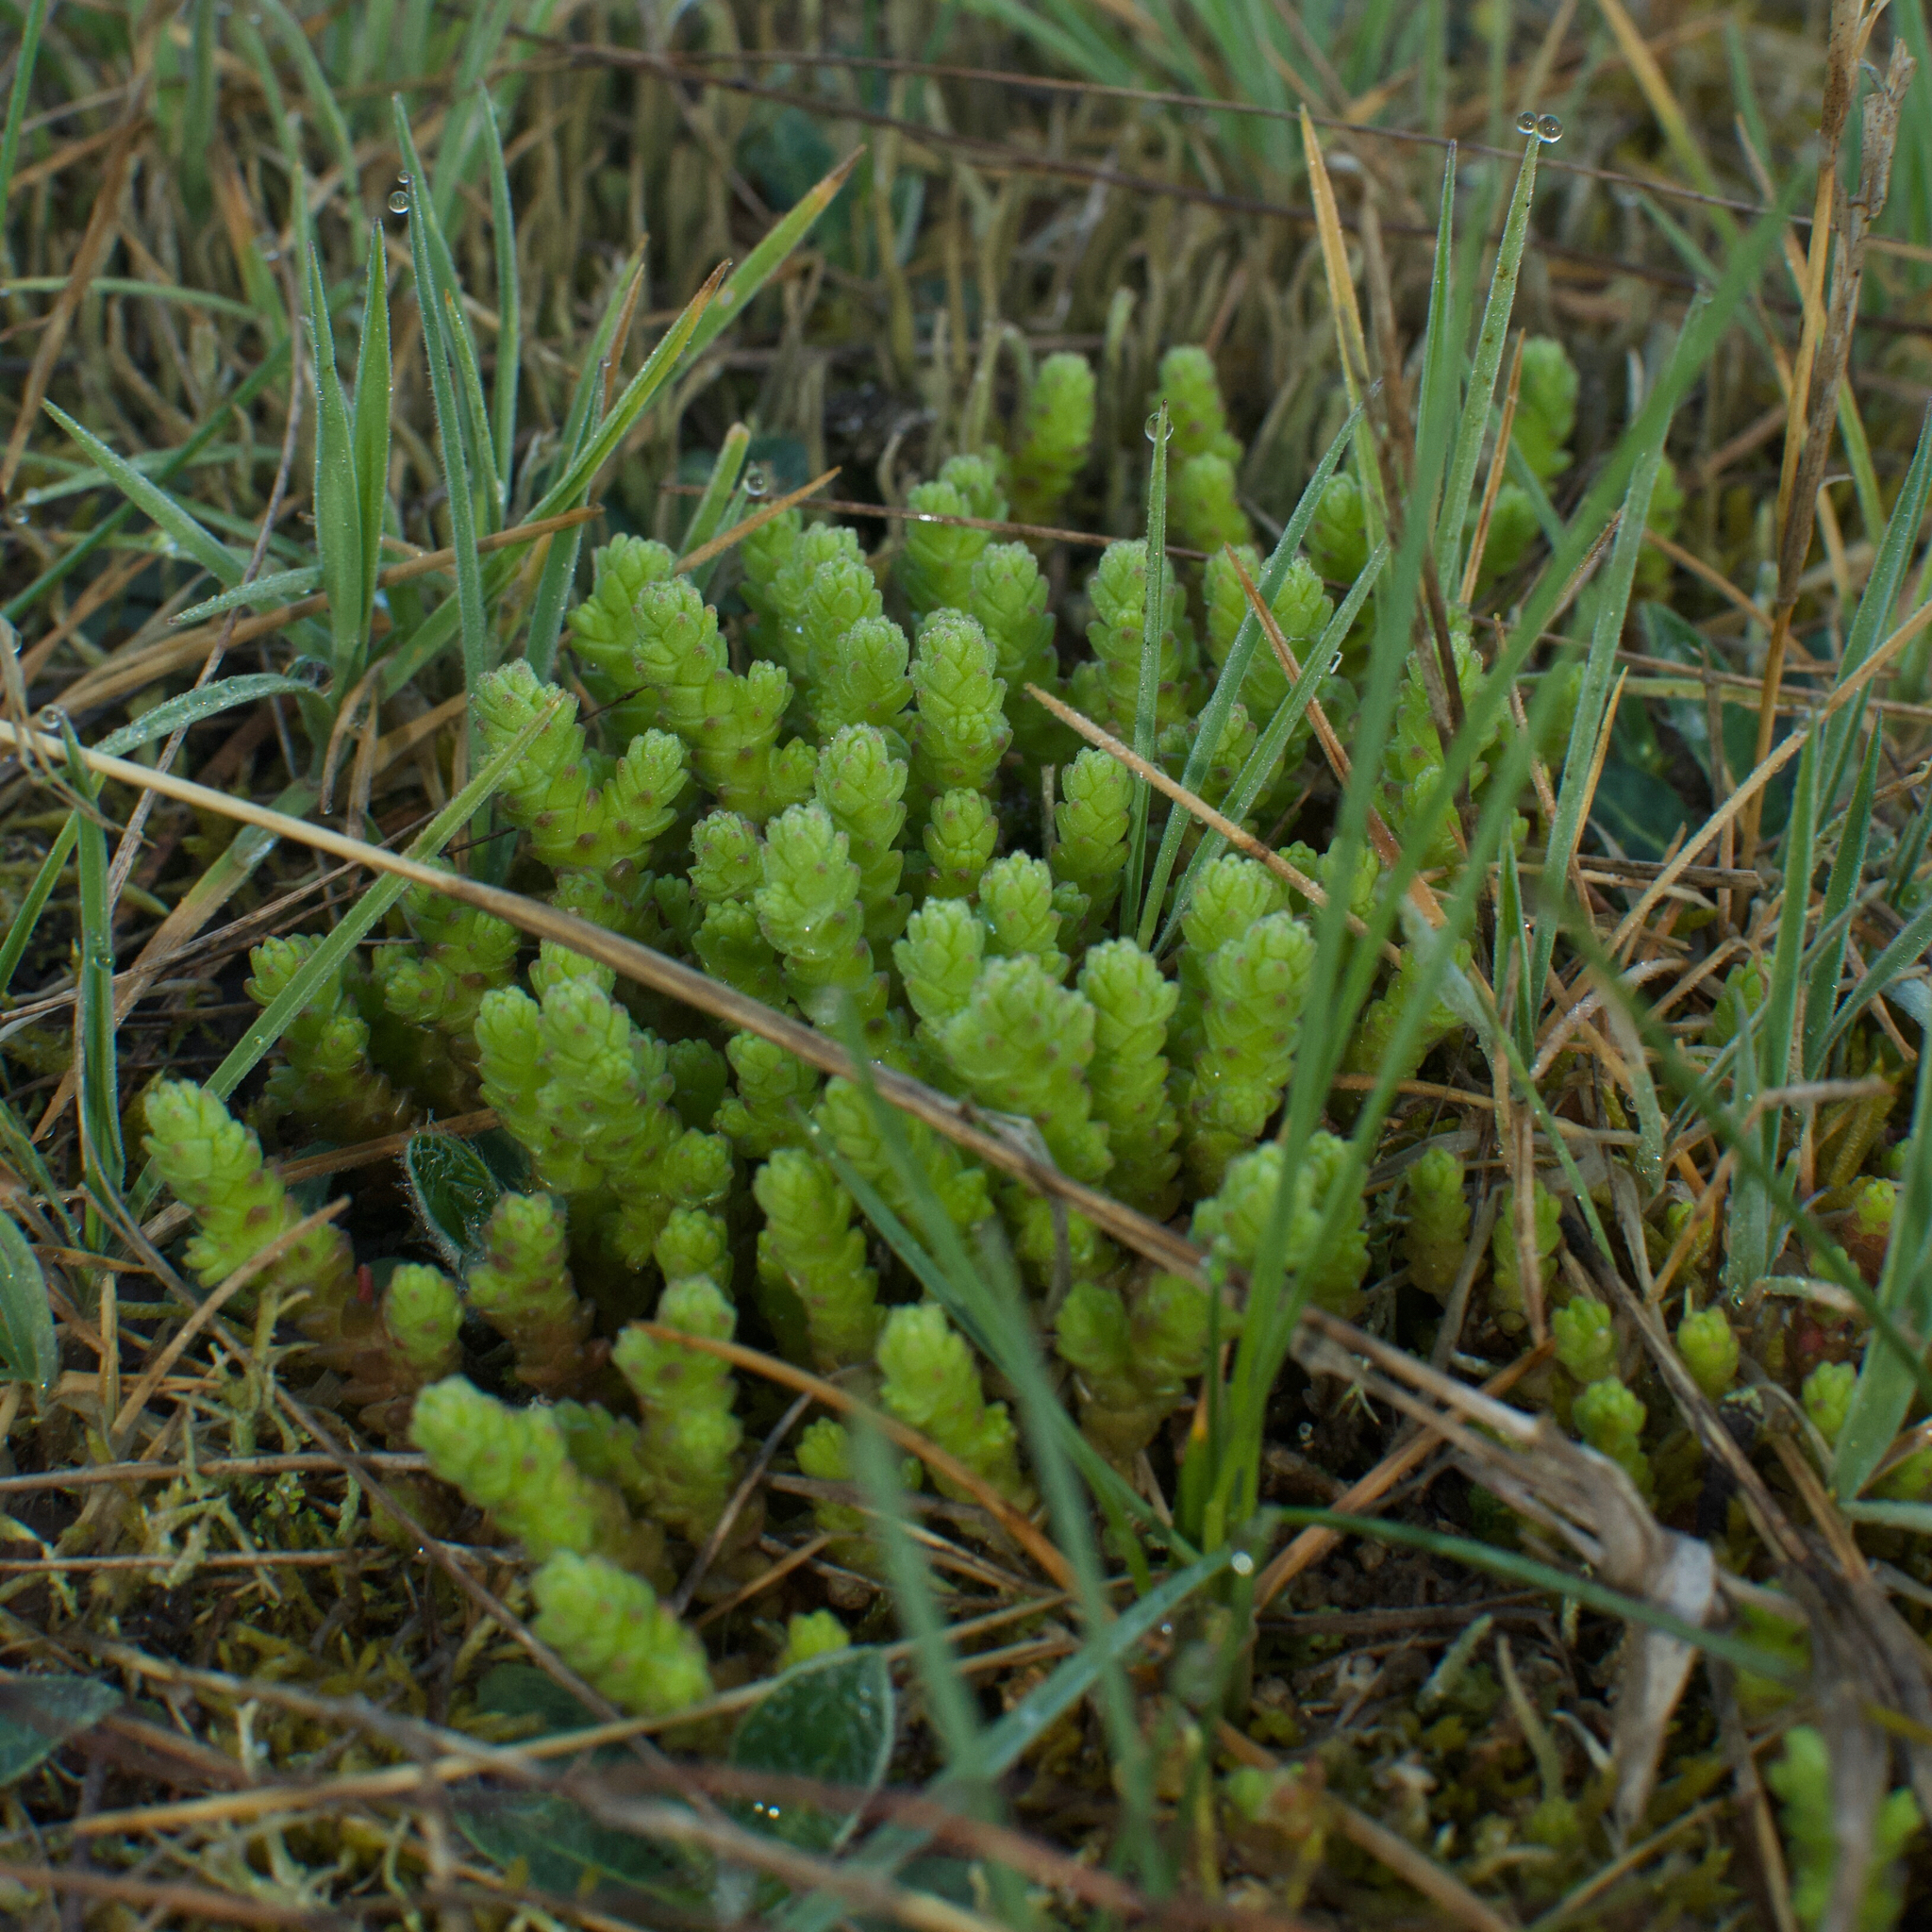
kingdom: Plantae
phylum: Tracheophyta
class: Magnoliopsida
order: Saxifragales
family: Crassulaceae
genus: Sedum
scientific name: Sedum acre
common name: Biting stonecrop
